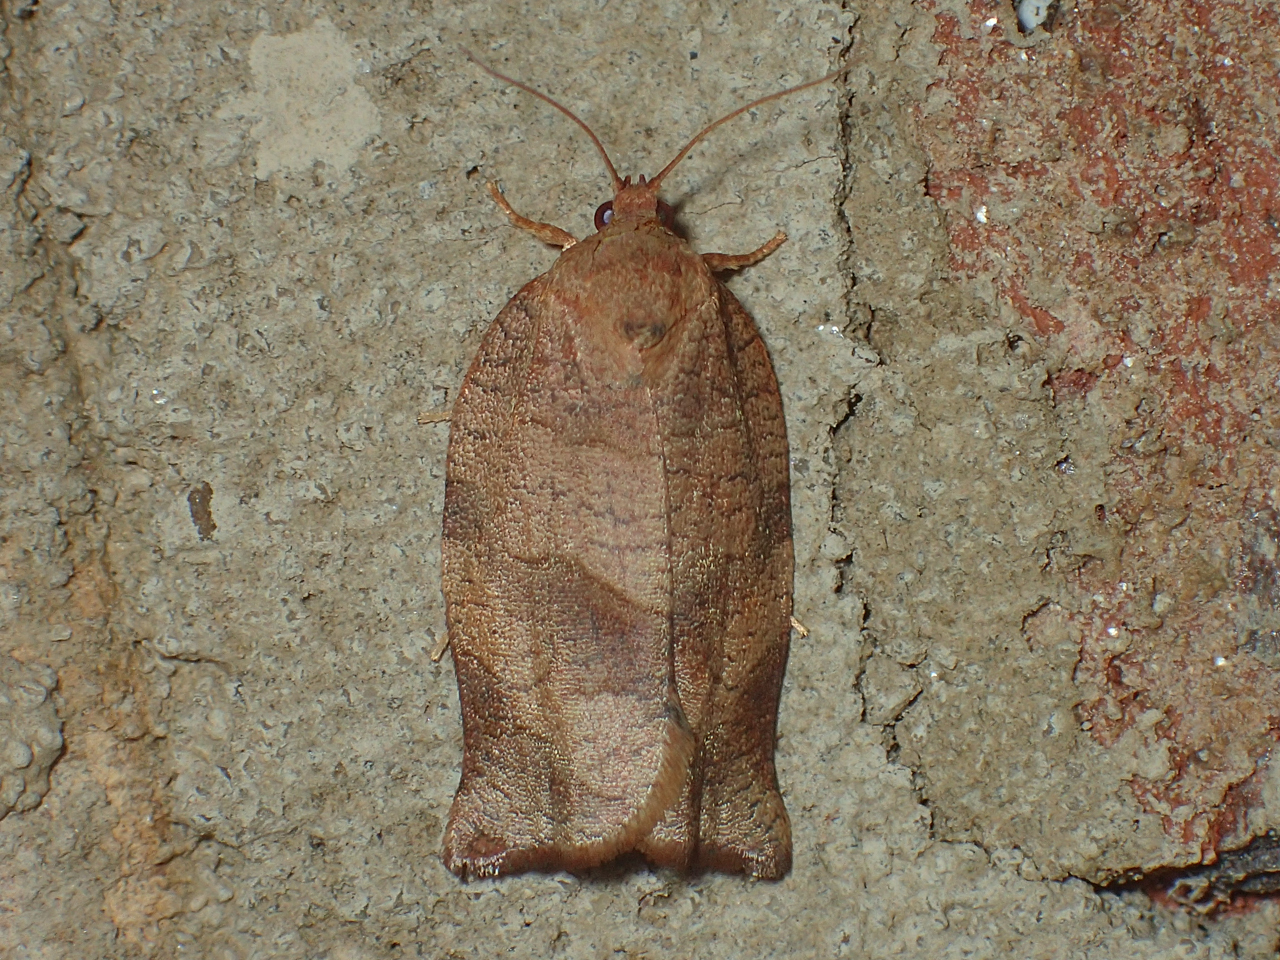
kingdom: Animalia
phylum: Arthropoda
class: Insecta
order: Lepidoptera
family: Tortricidae
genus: Choristoneura
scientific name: Choristoneura rosaceana
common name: Oblique-banded leafroller moth
